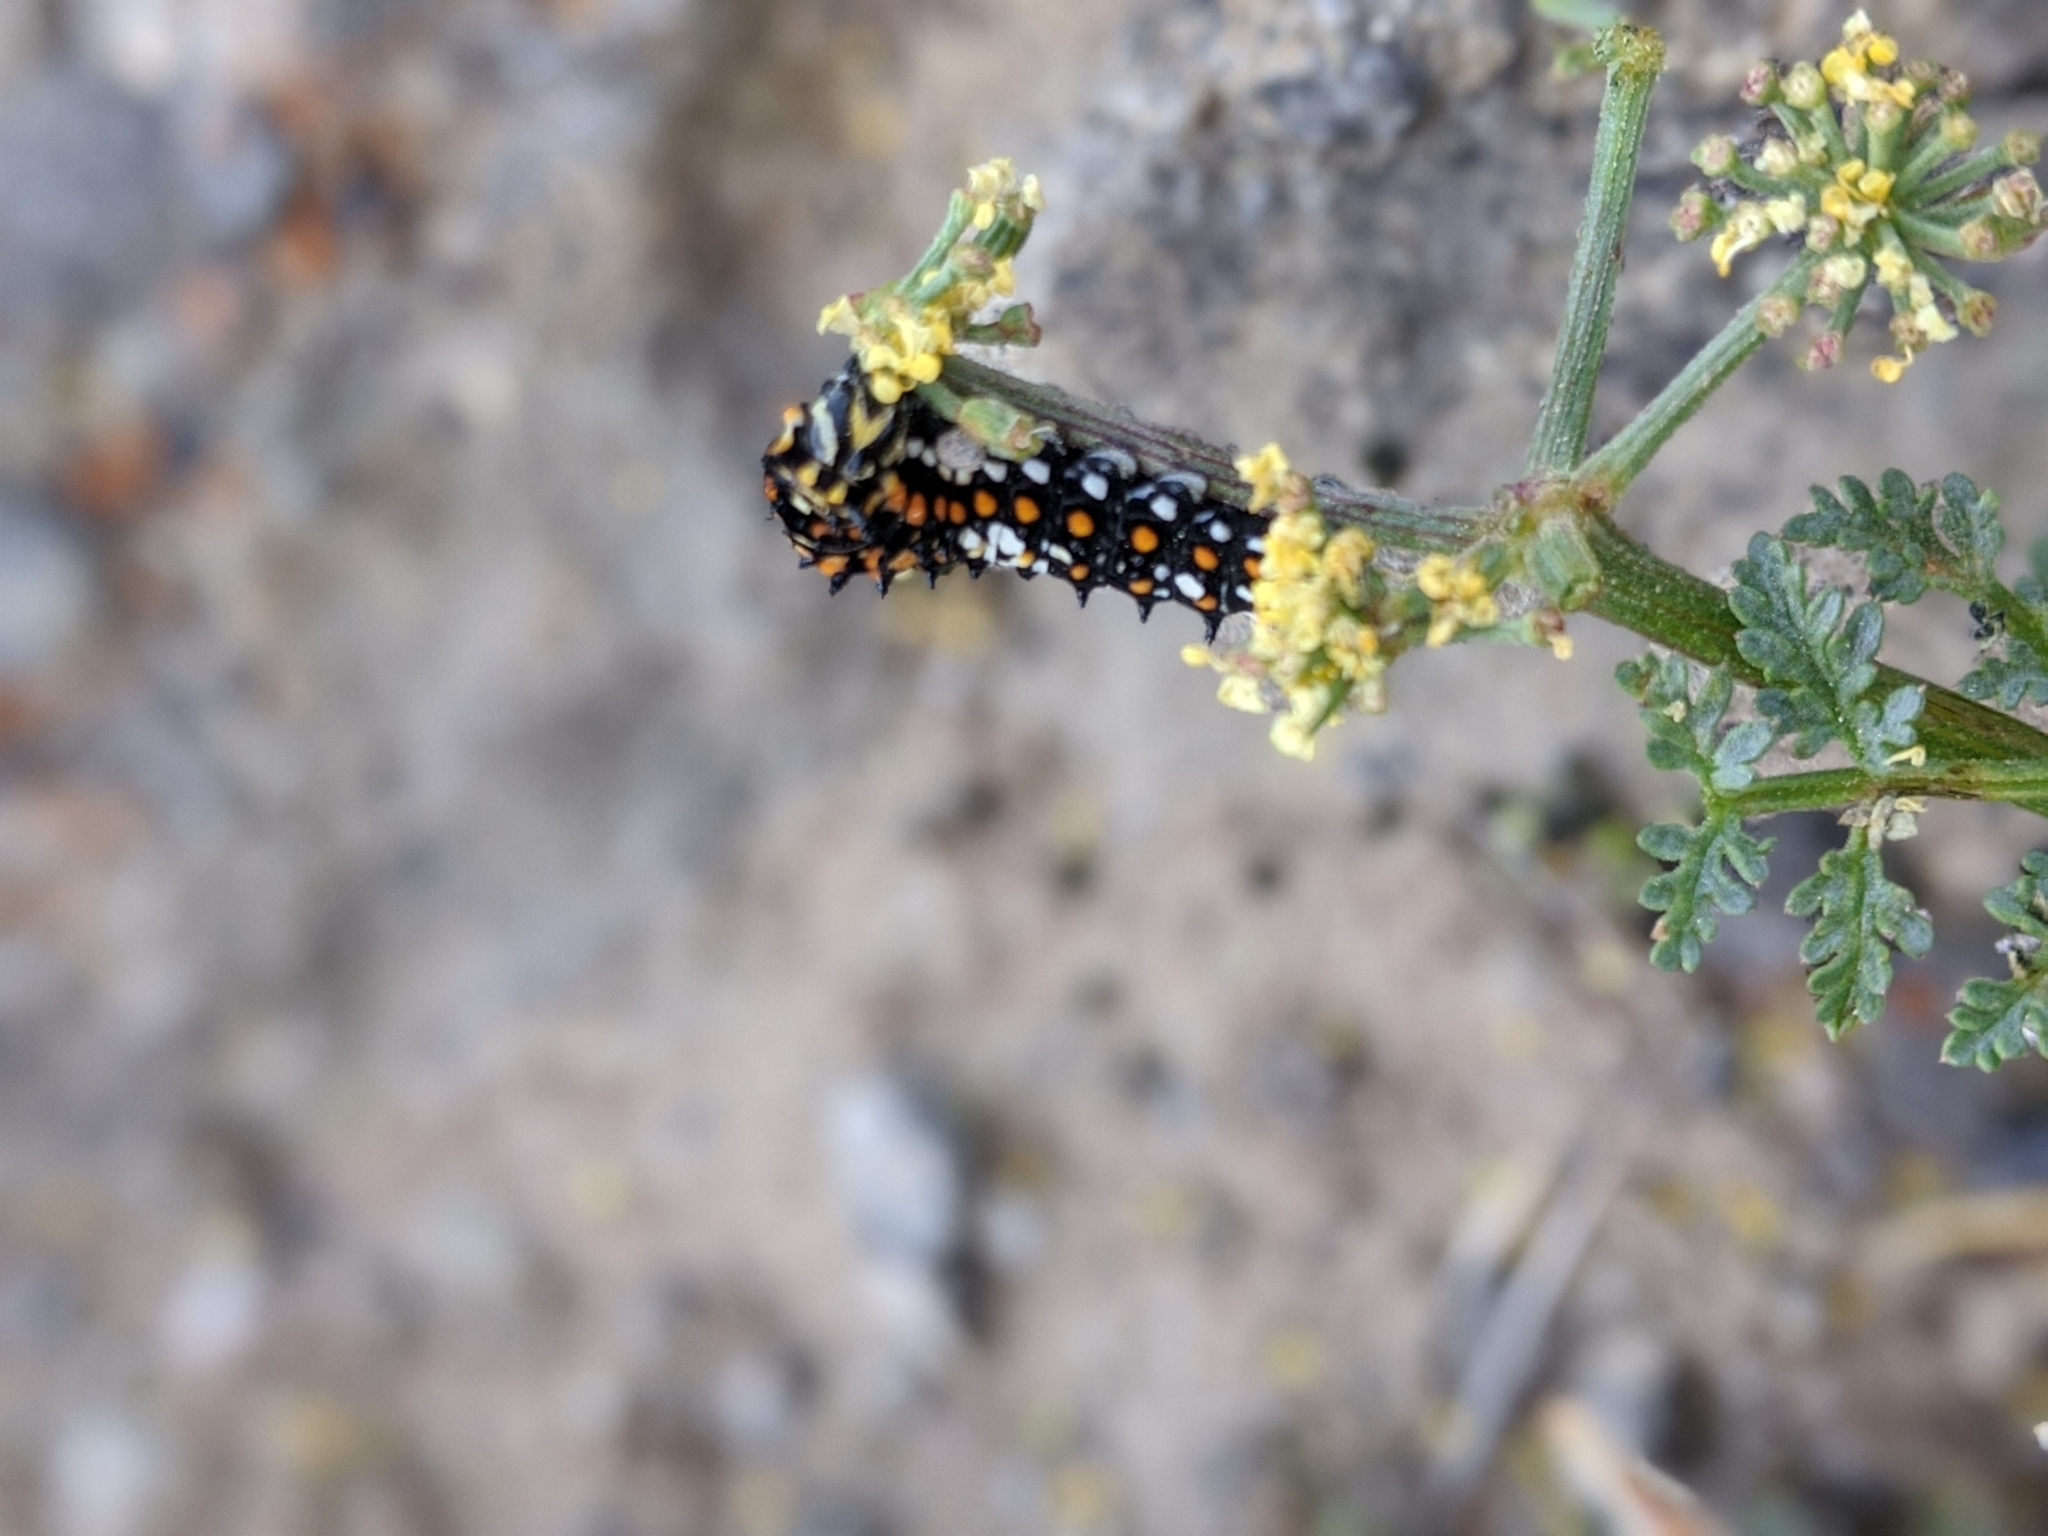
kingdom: Animalia
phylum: Arthropoda
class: Insecta
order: Lepidoptera
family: Papilionidae
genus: Papilio
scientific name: Papilio zelicaon
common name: Anise swallowtail
